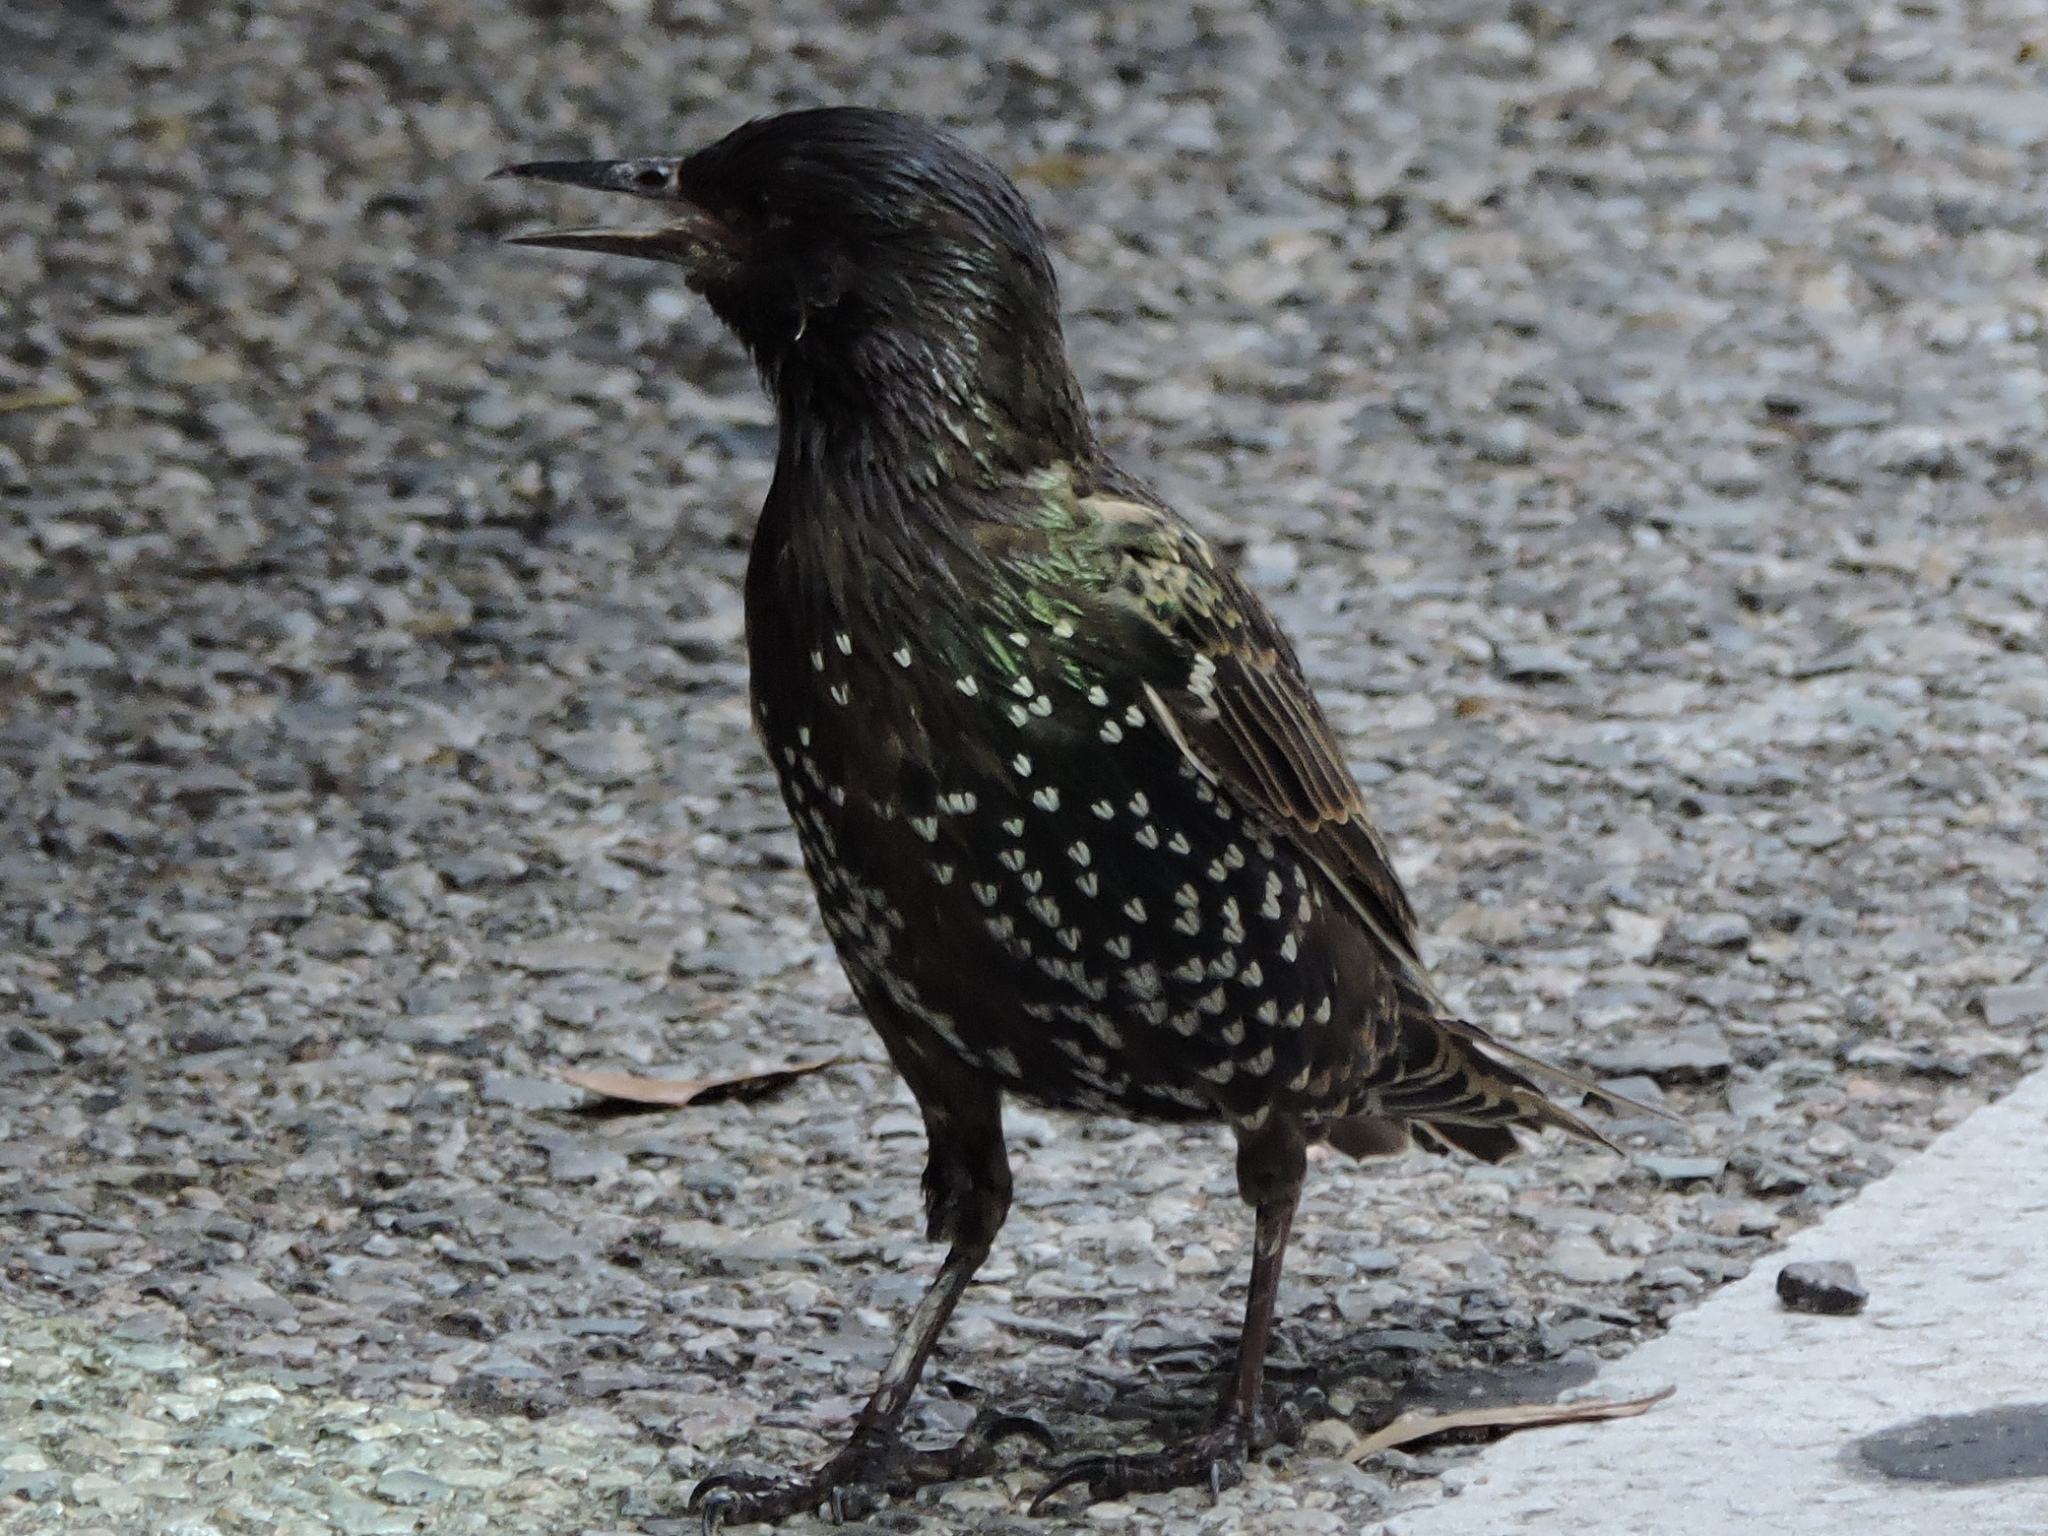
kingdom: Animalia
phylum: Chordata
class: Aves
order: Passeriformes
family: Sturnidae
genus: Sturnus
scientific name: Sturnus vulgaris
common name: Common starling
